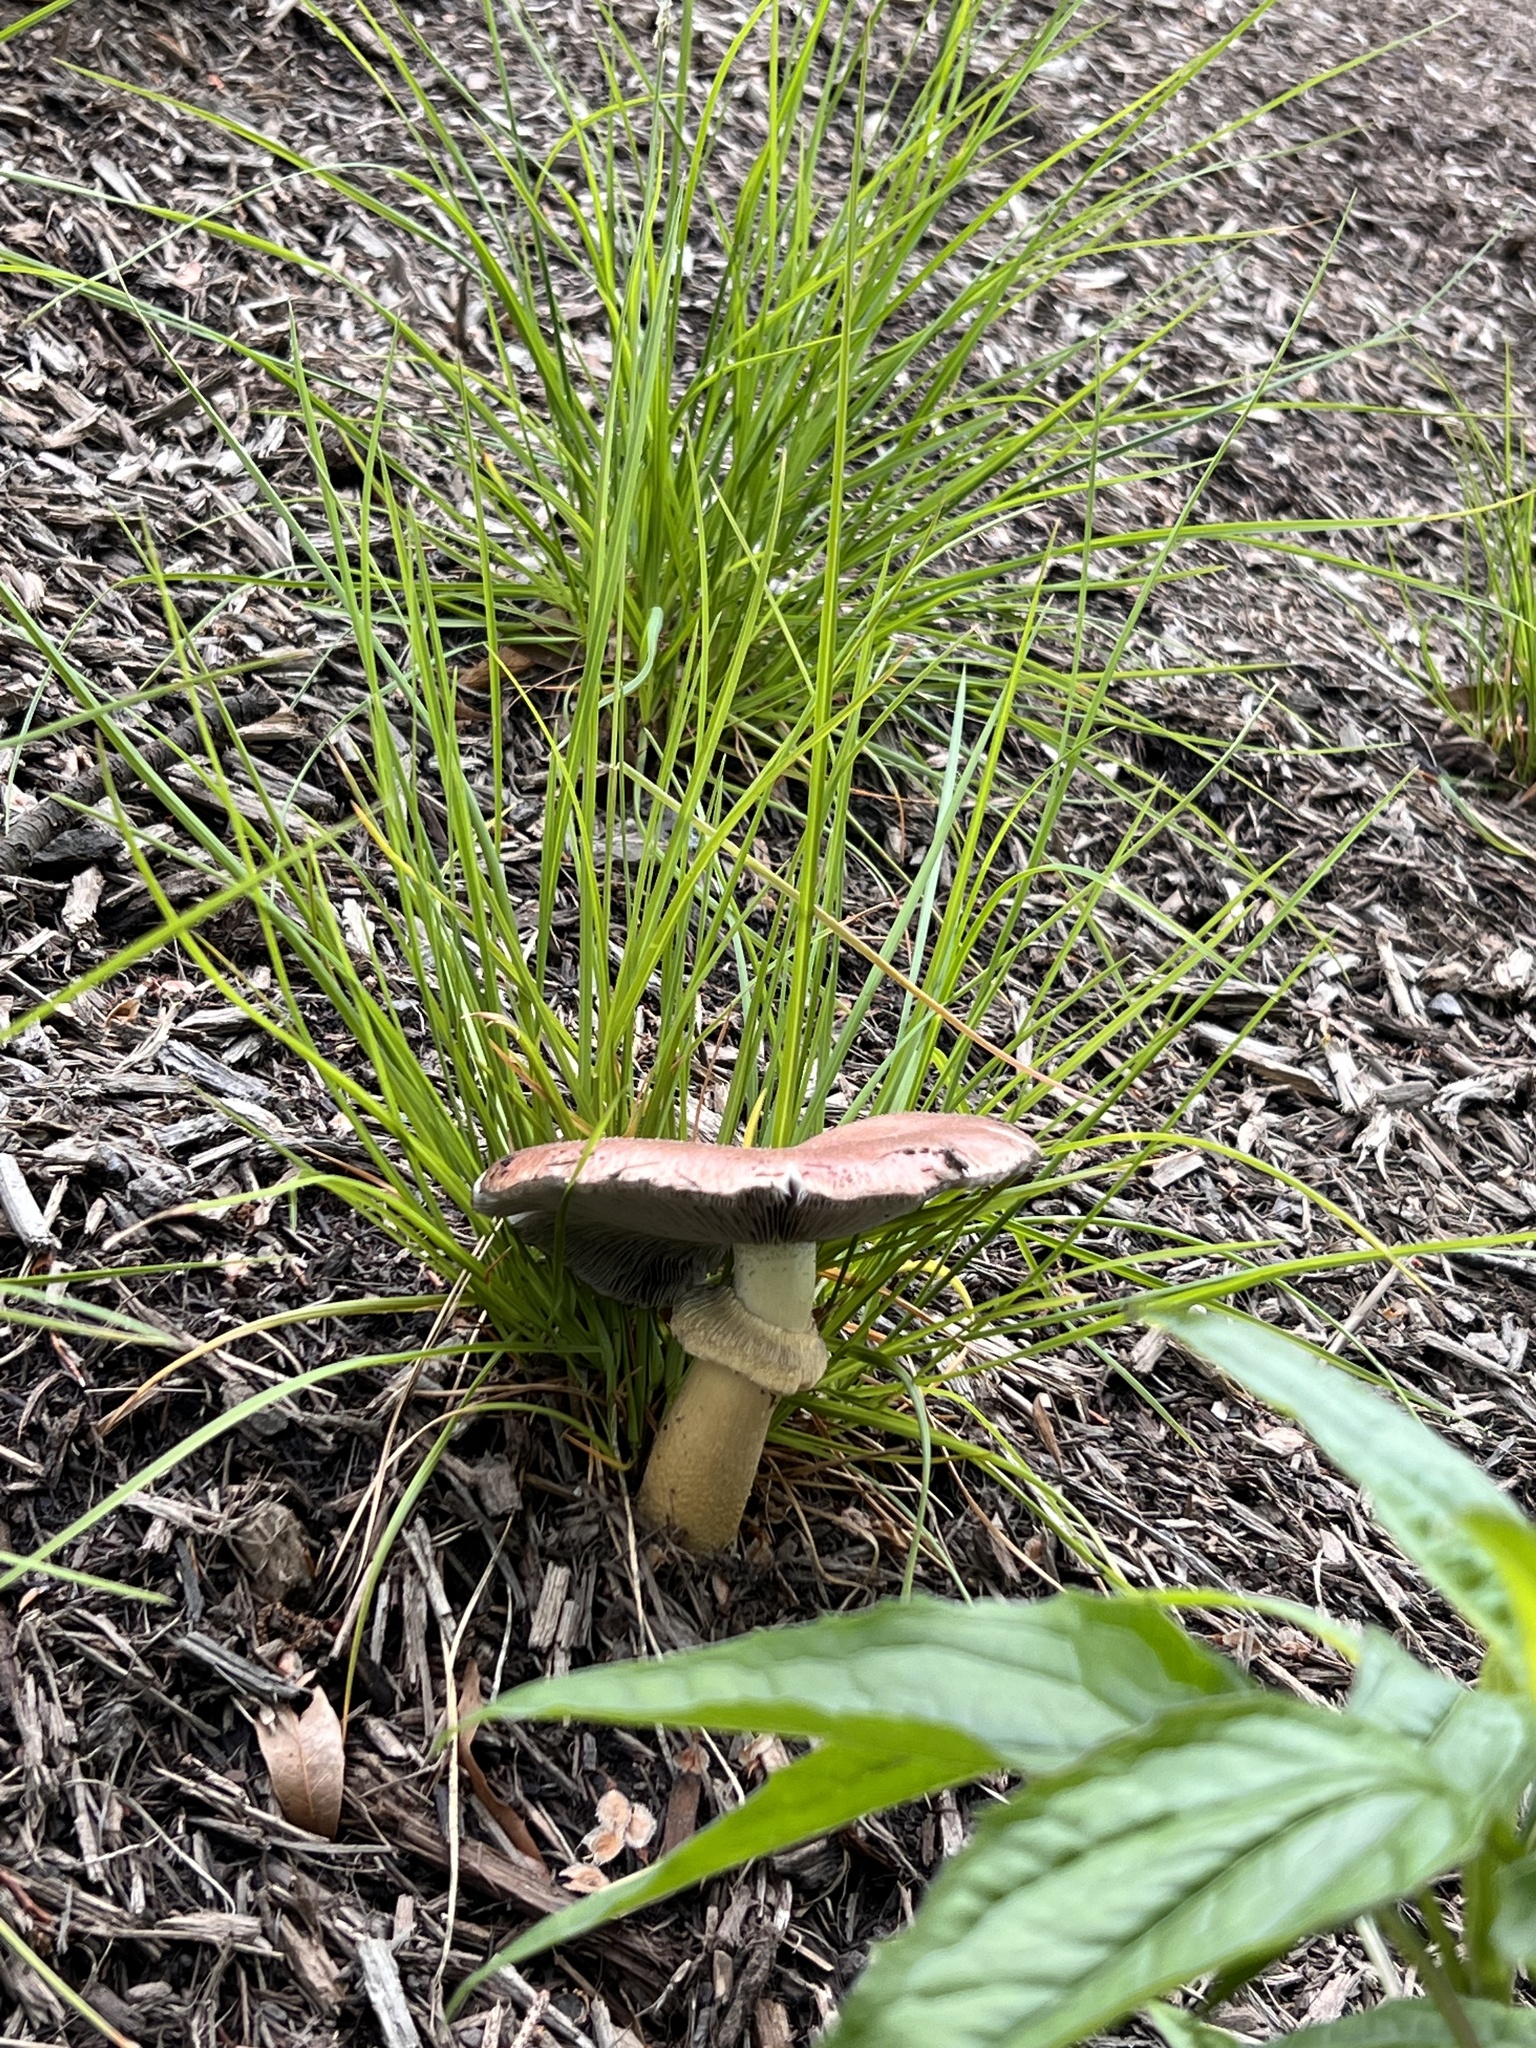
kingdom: Fungi
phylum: Basidiomycota
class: Agaricomycetes
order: Agaricales
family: Strophariaceae
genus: Stropharia
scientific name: Stropharia rugosoannulata
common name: Wine roundhead
